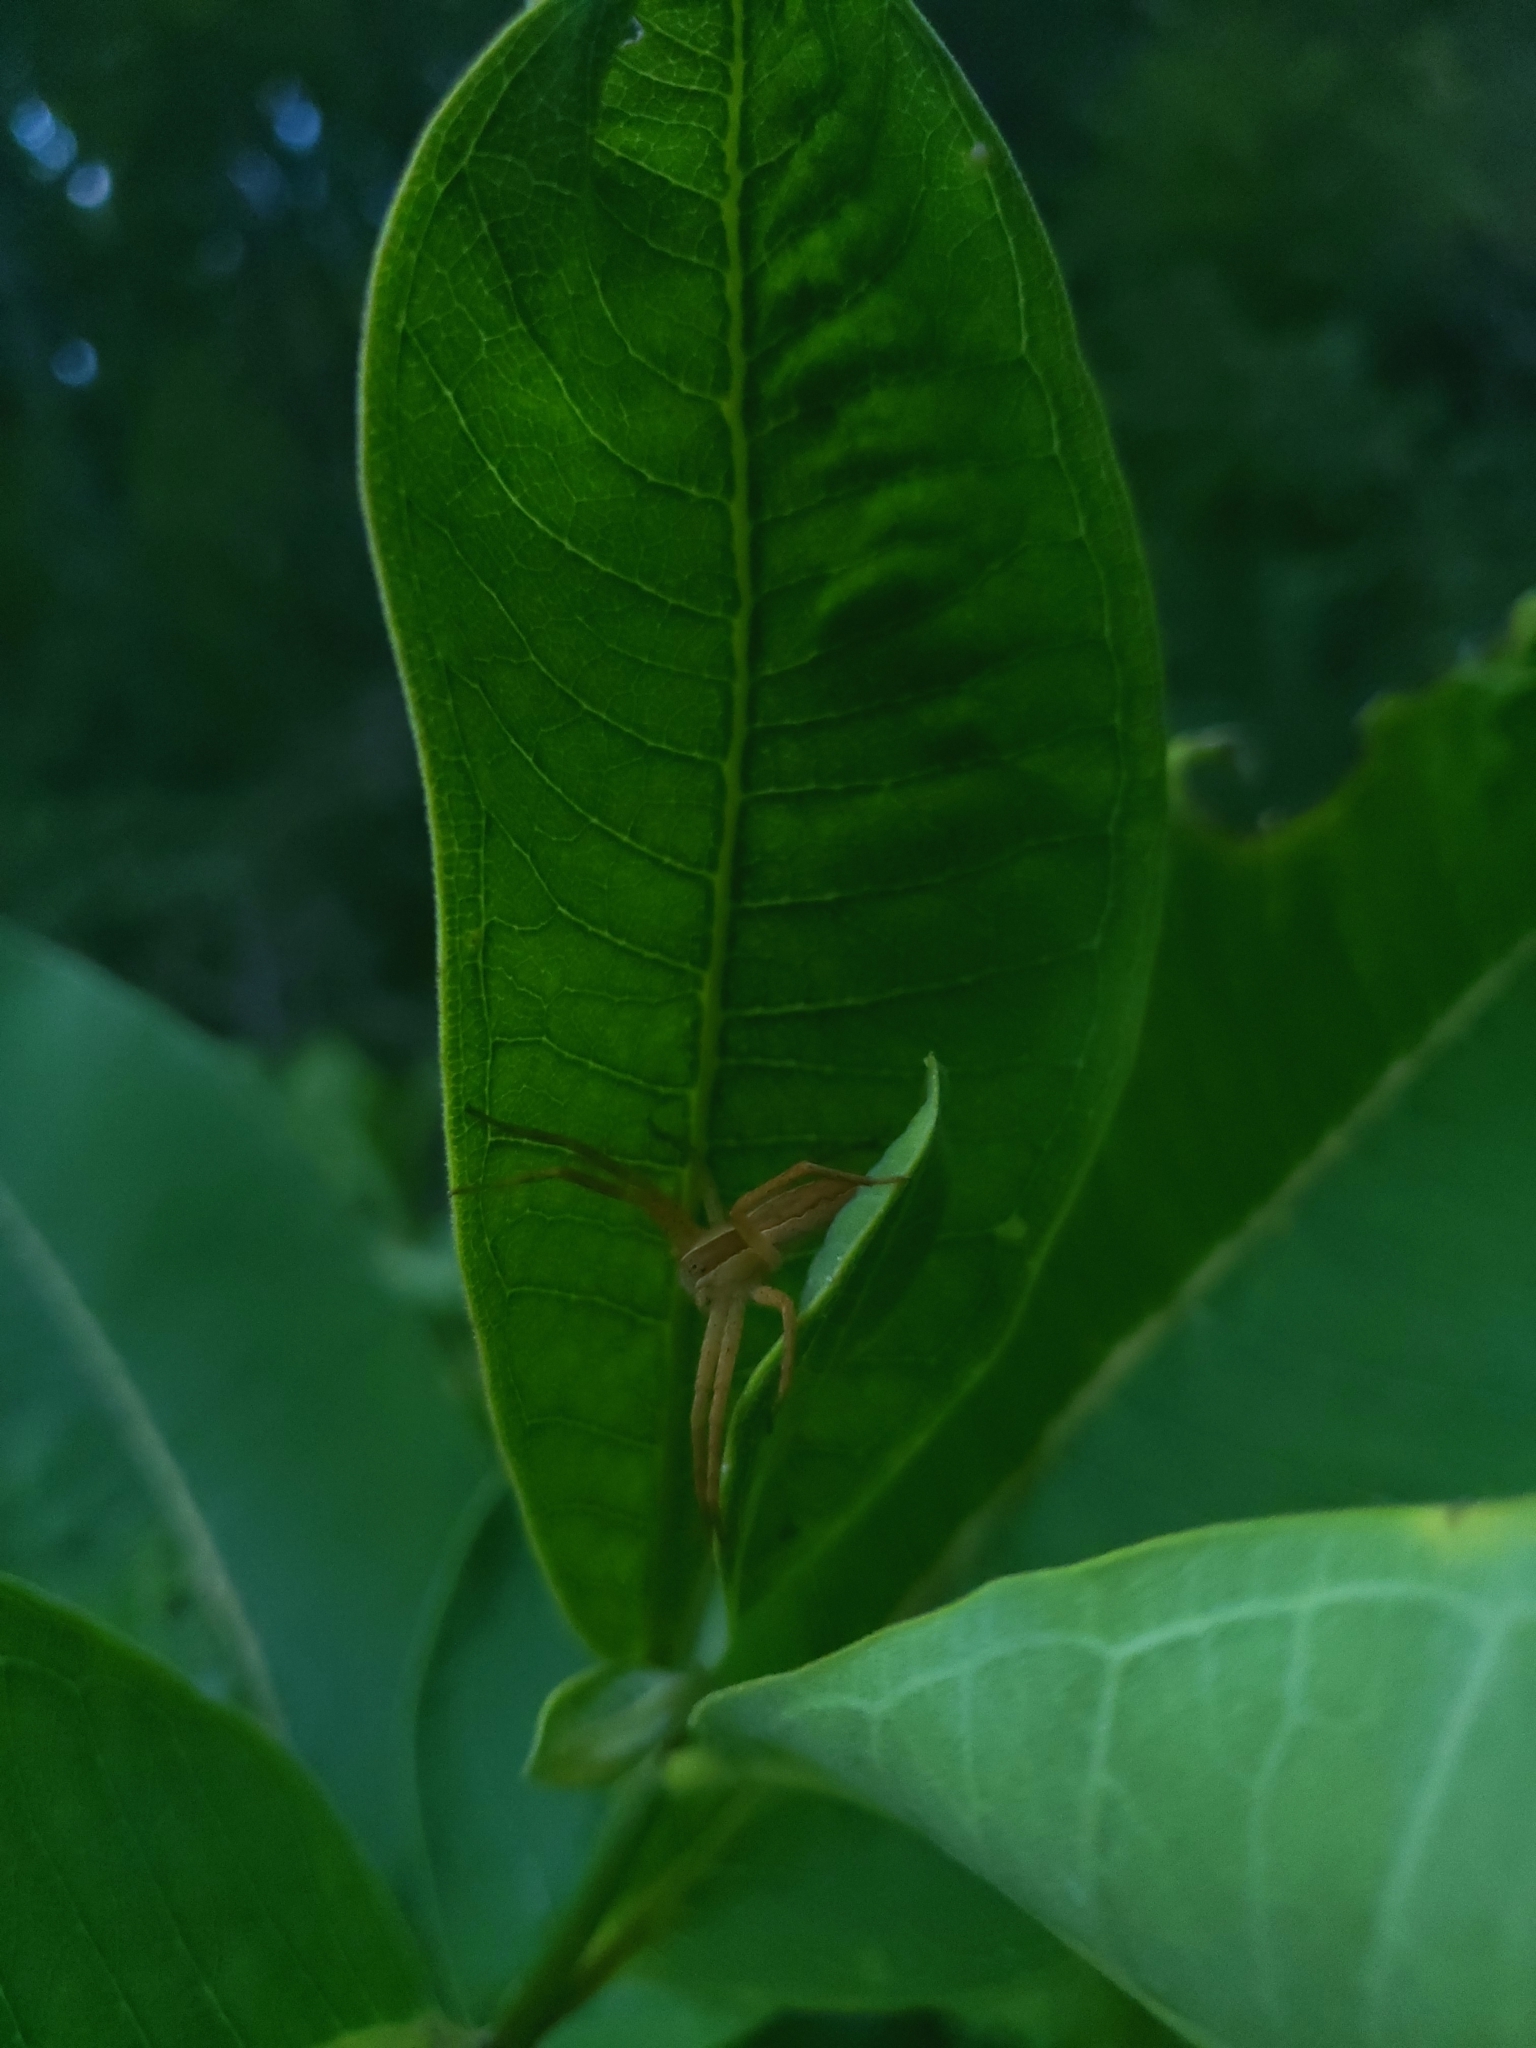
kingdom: Animalia
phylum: Arthropoda
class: Arachnida
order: Araneae
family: Pisauridae
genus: Pisaurina
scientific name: Pisaurina mira
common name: American nursery web spider
